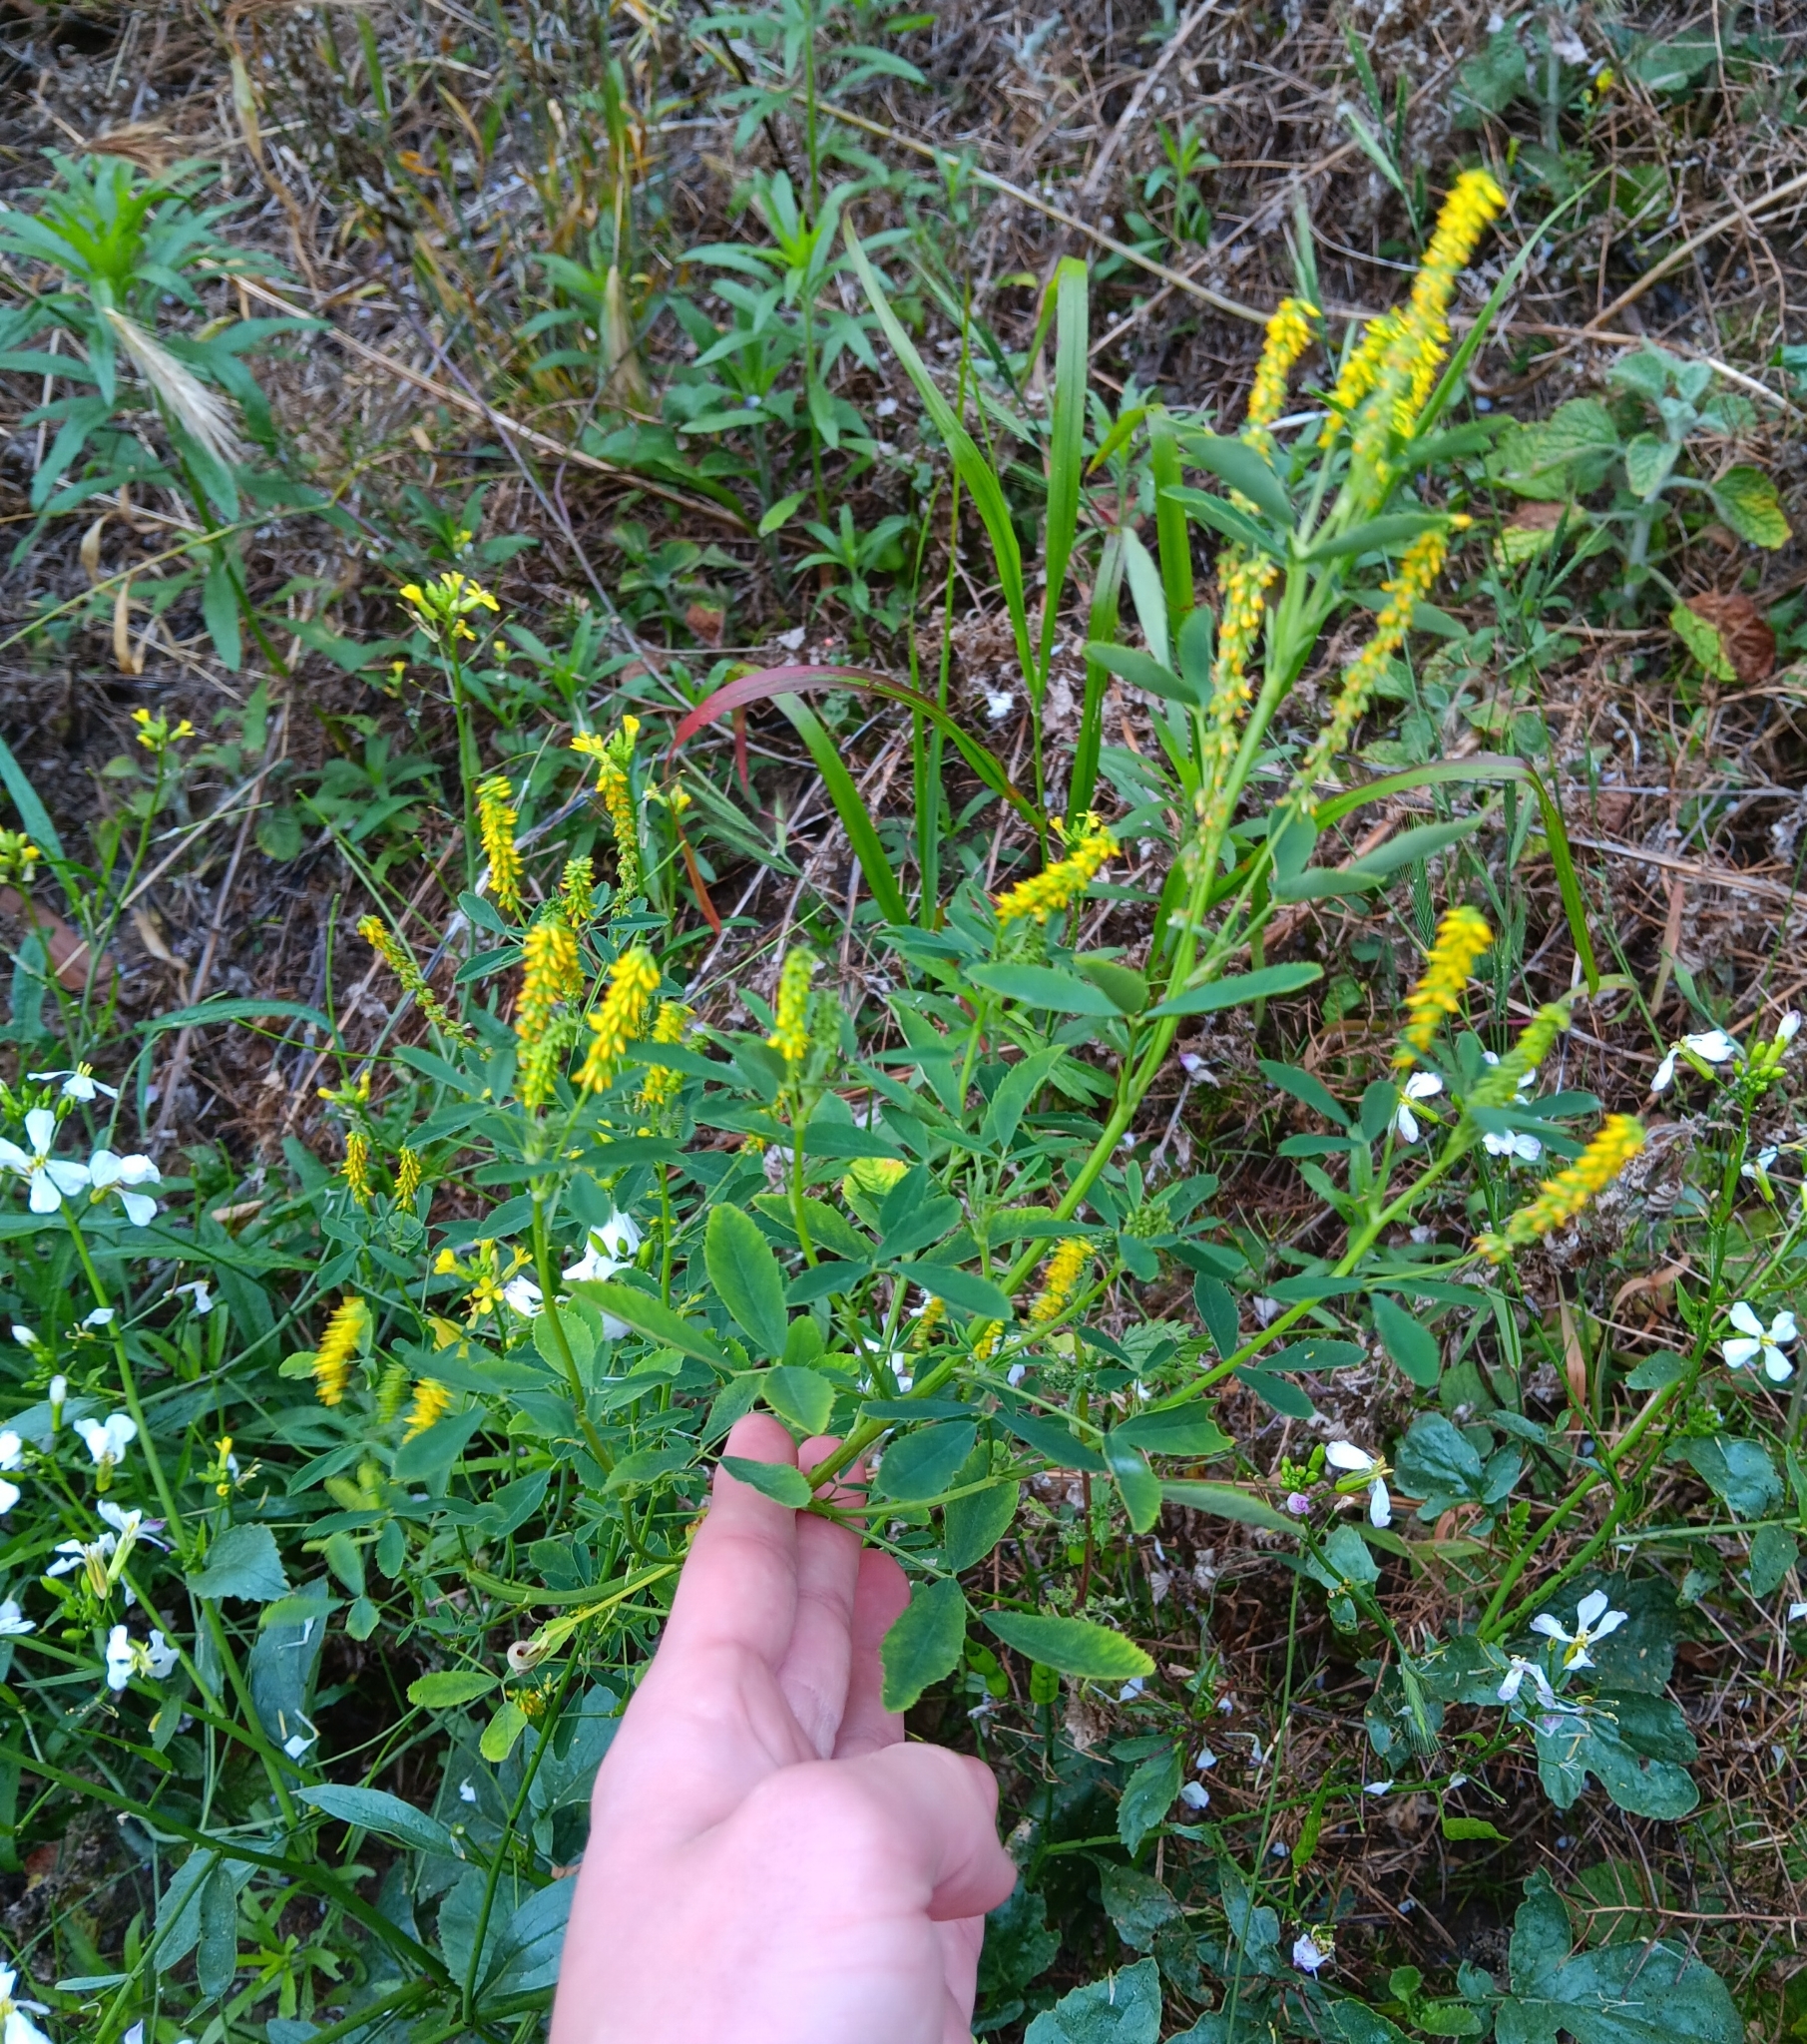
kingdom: Plantae
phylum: Tracheophyta
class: Magnoliopsida
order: Fabales
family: Fabaceae
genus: Melilotus
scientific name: Melilotus indicus
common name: Small melilot
